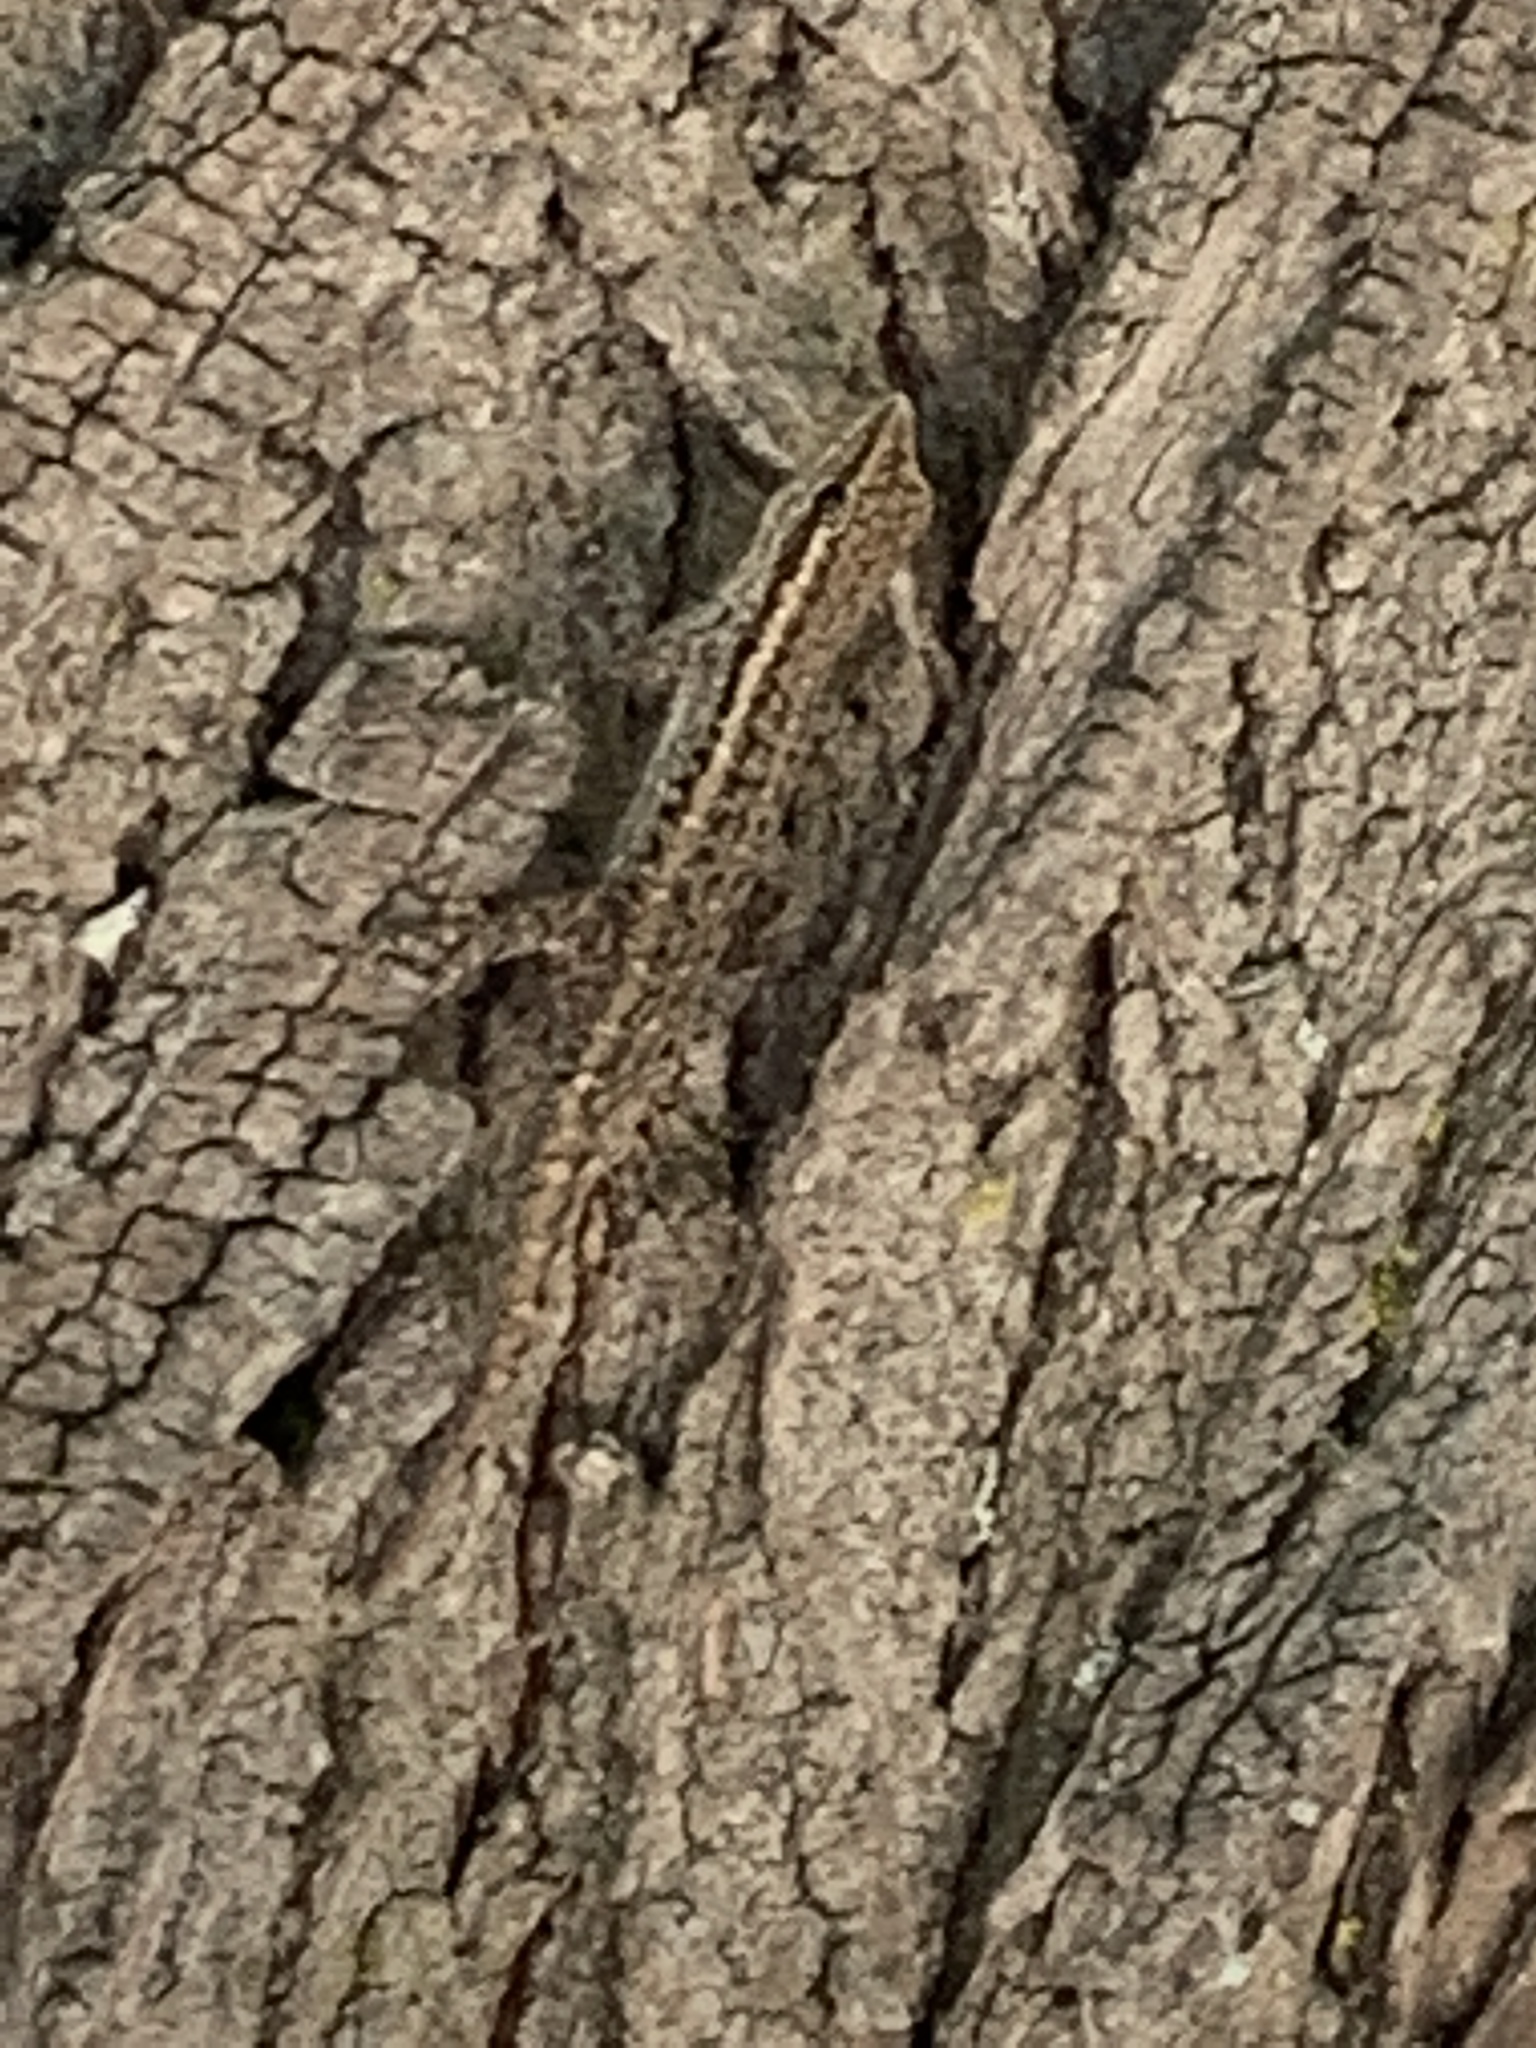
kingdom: Animalia
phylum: Chordata
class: Squamata
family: Gekkonidae
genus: Lygodactylus
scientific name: Lygodactylus capensis
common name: Cape dwarf gecko
